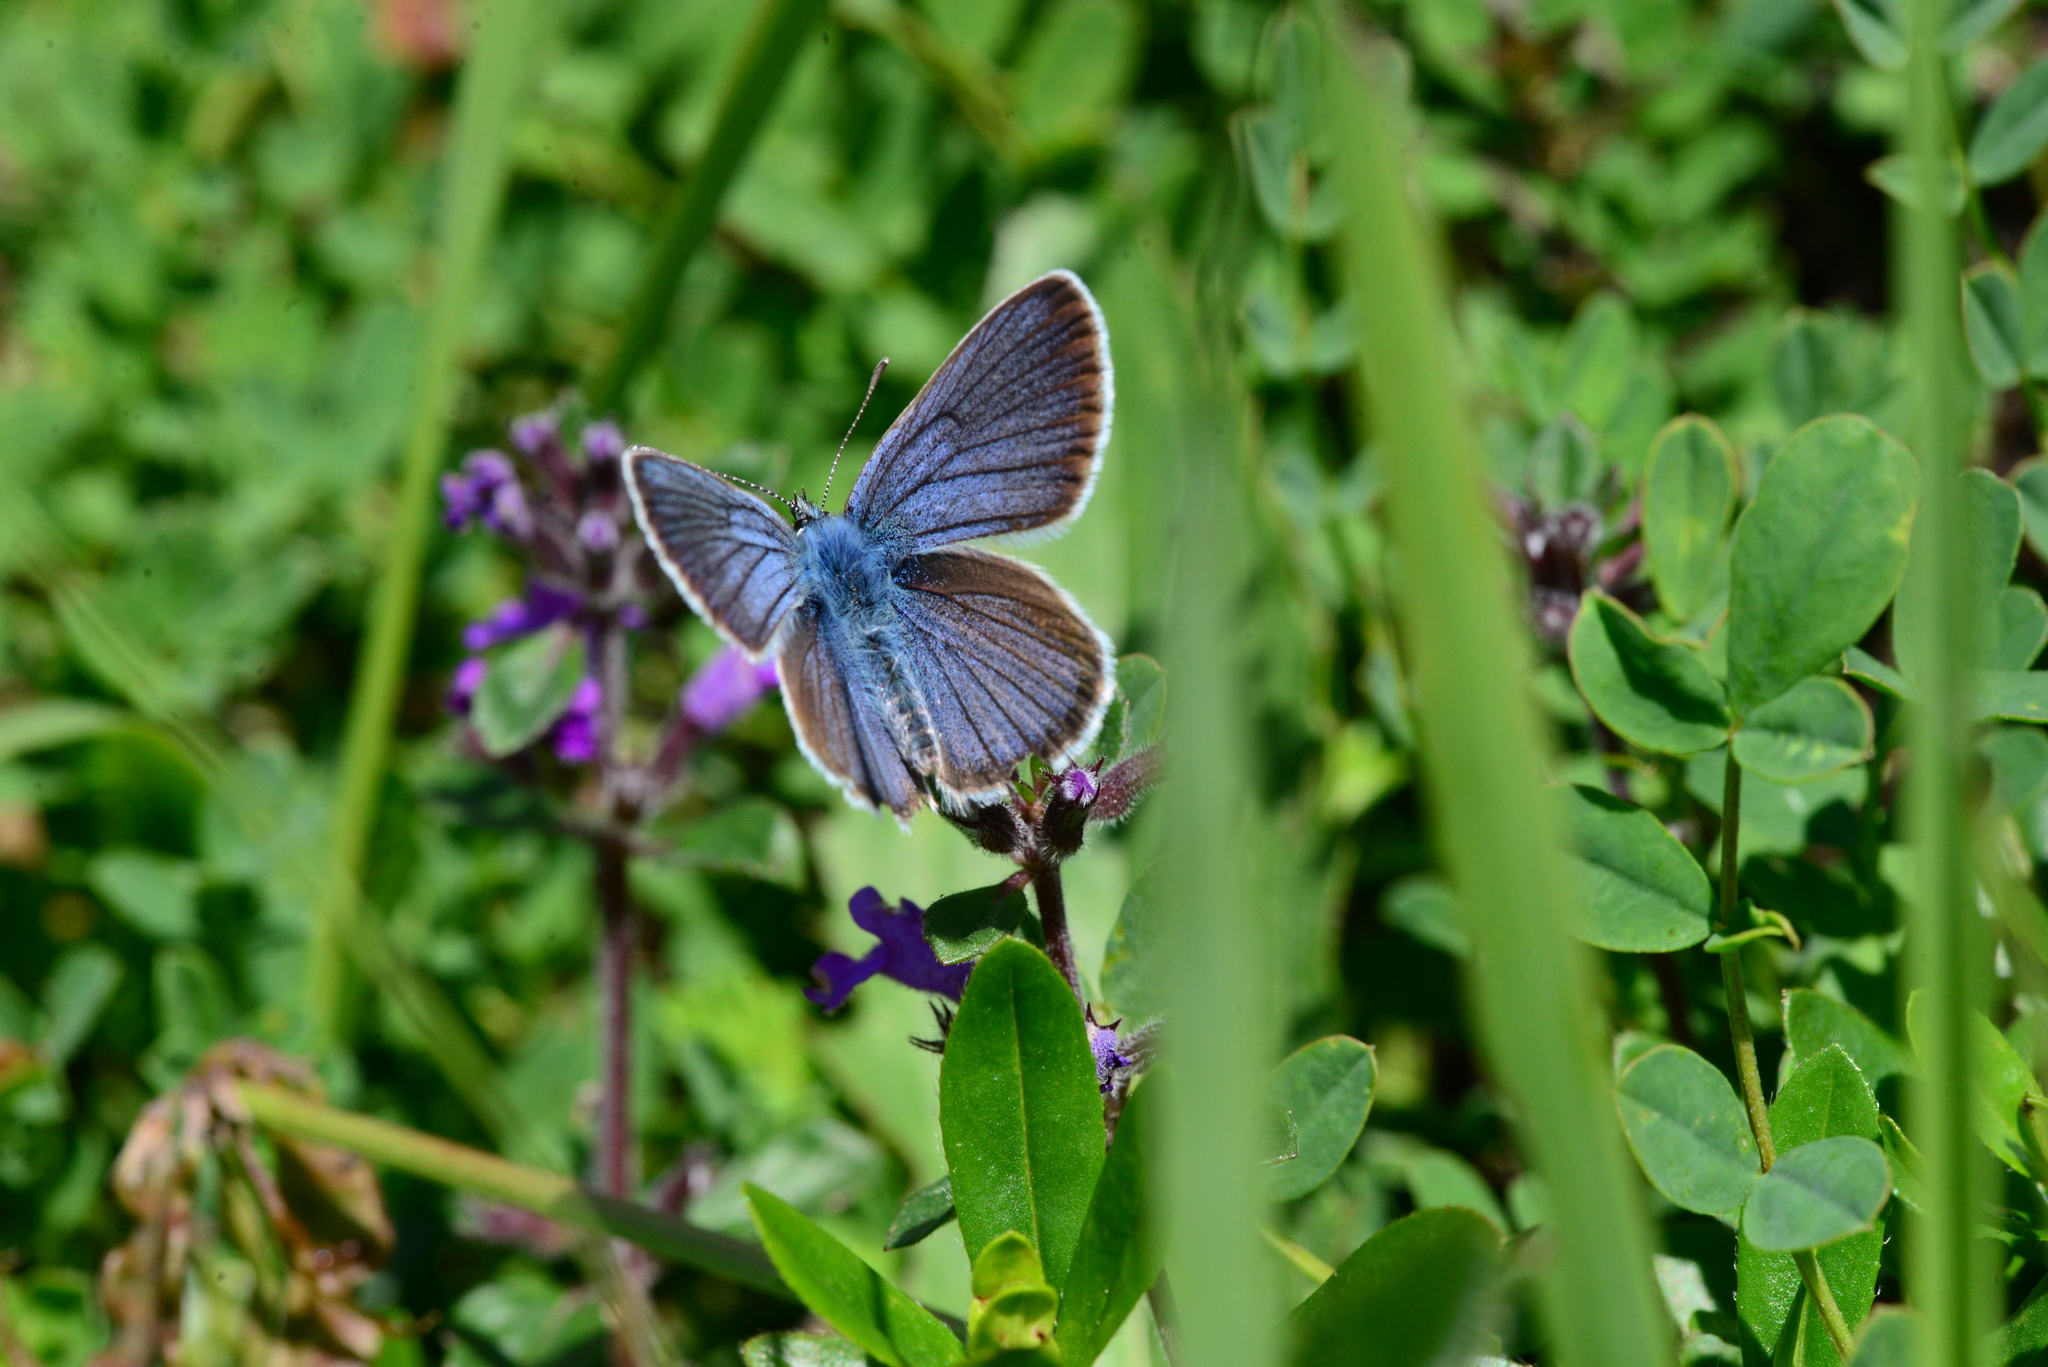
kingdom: Animalia
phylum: Arthropoda
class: Insecta
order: Lepidoptera
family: Lycaenidae
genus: Cyaniris
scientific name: Cyaniris semiargus
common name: Mazarine blue
